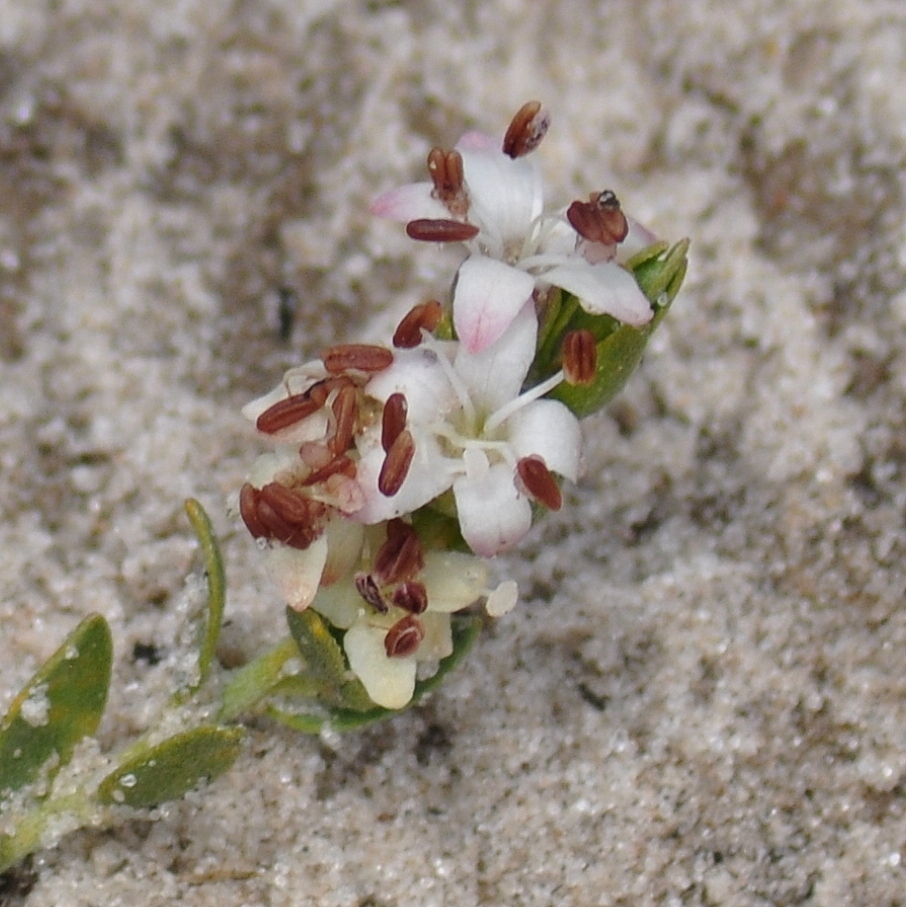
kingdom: Plantae
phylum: Tracheophyta
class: Magnoliopsida
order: Solanales
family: Convolvulaceae
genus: Cressa
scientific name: Cressa truxillensis
